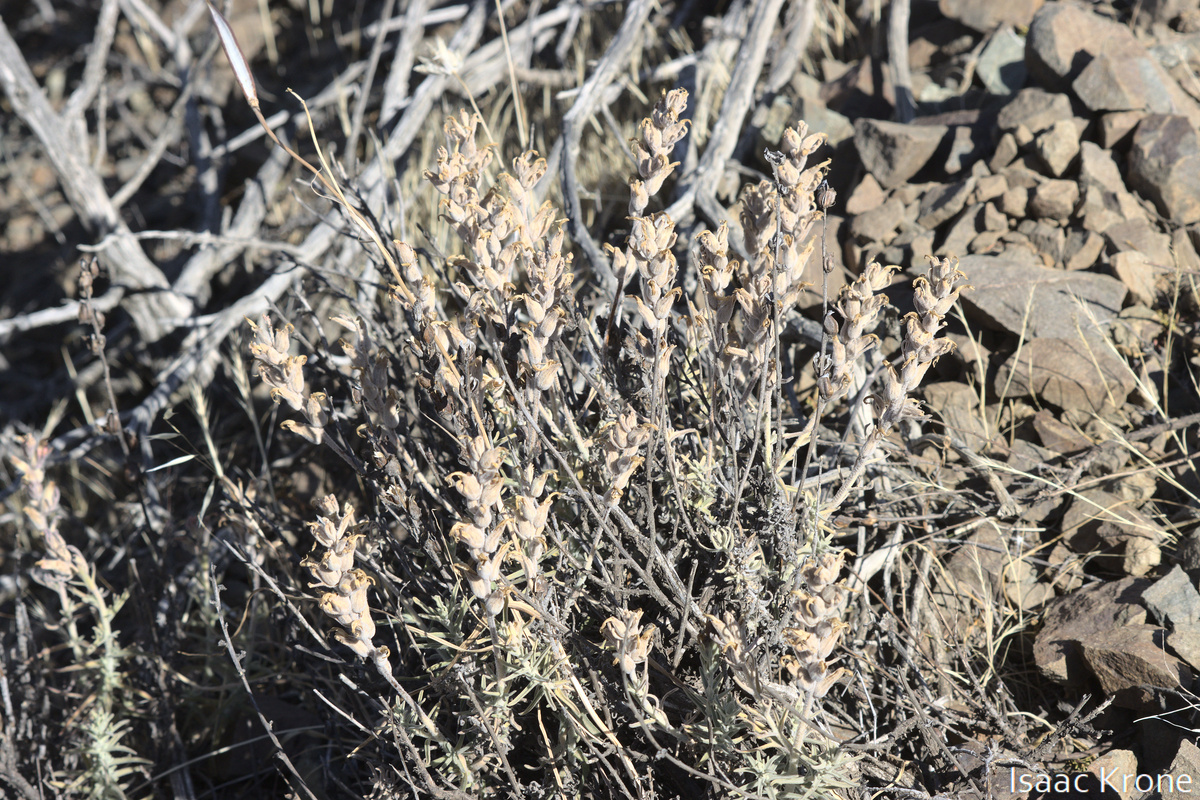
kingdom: Plantae
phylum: Tracheophyta
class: Magnoliopsida
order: Lamiales
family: Orobanchaceae
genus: Castilleja
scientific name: Castilleja foliolosa
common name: Woolly indian paintbrush
